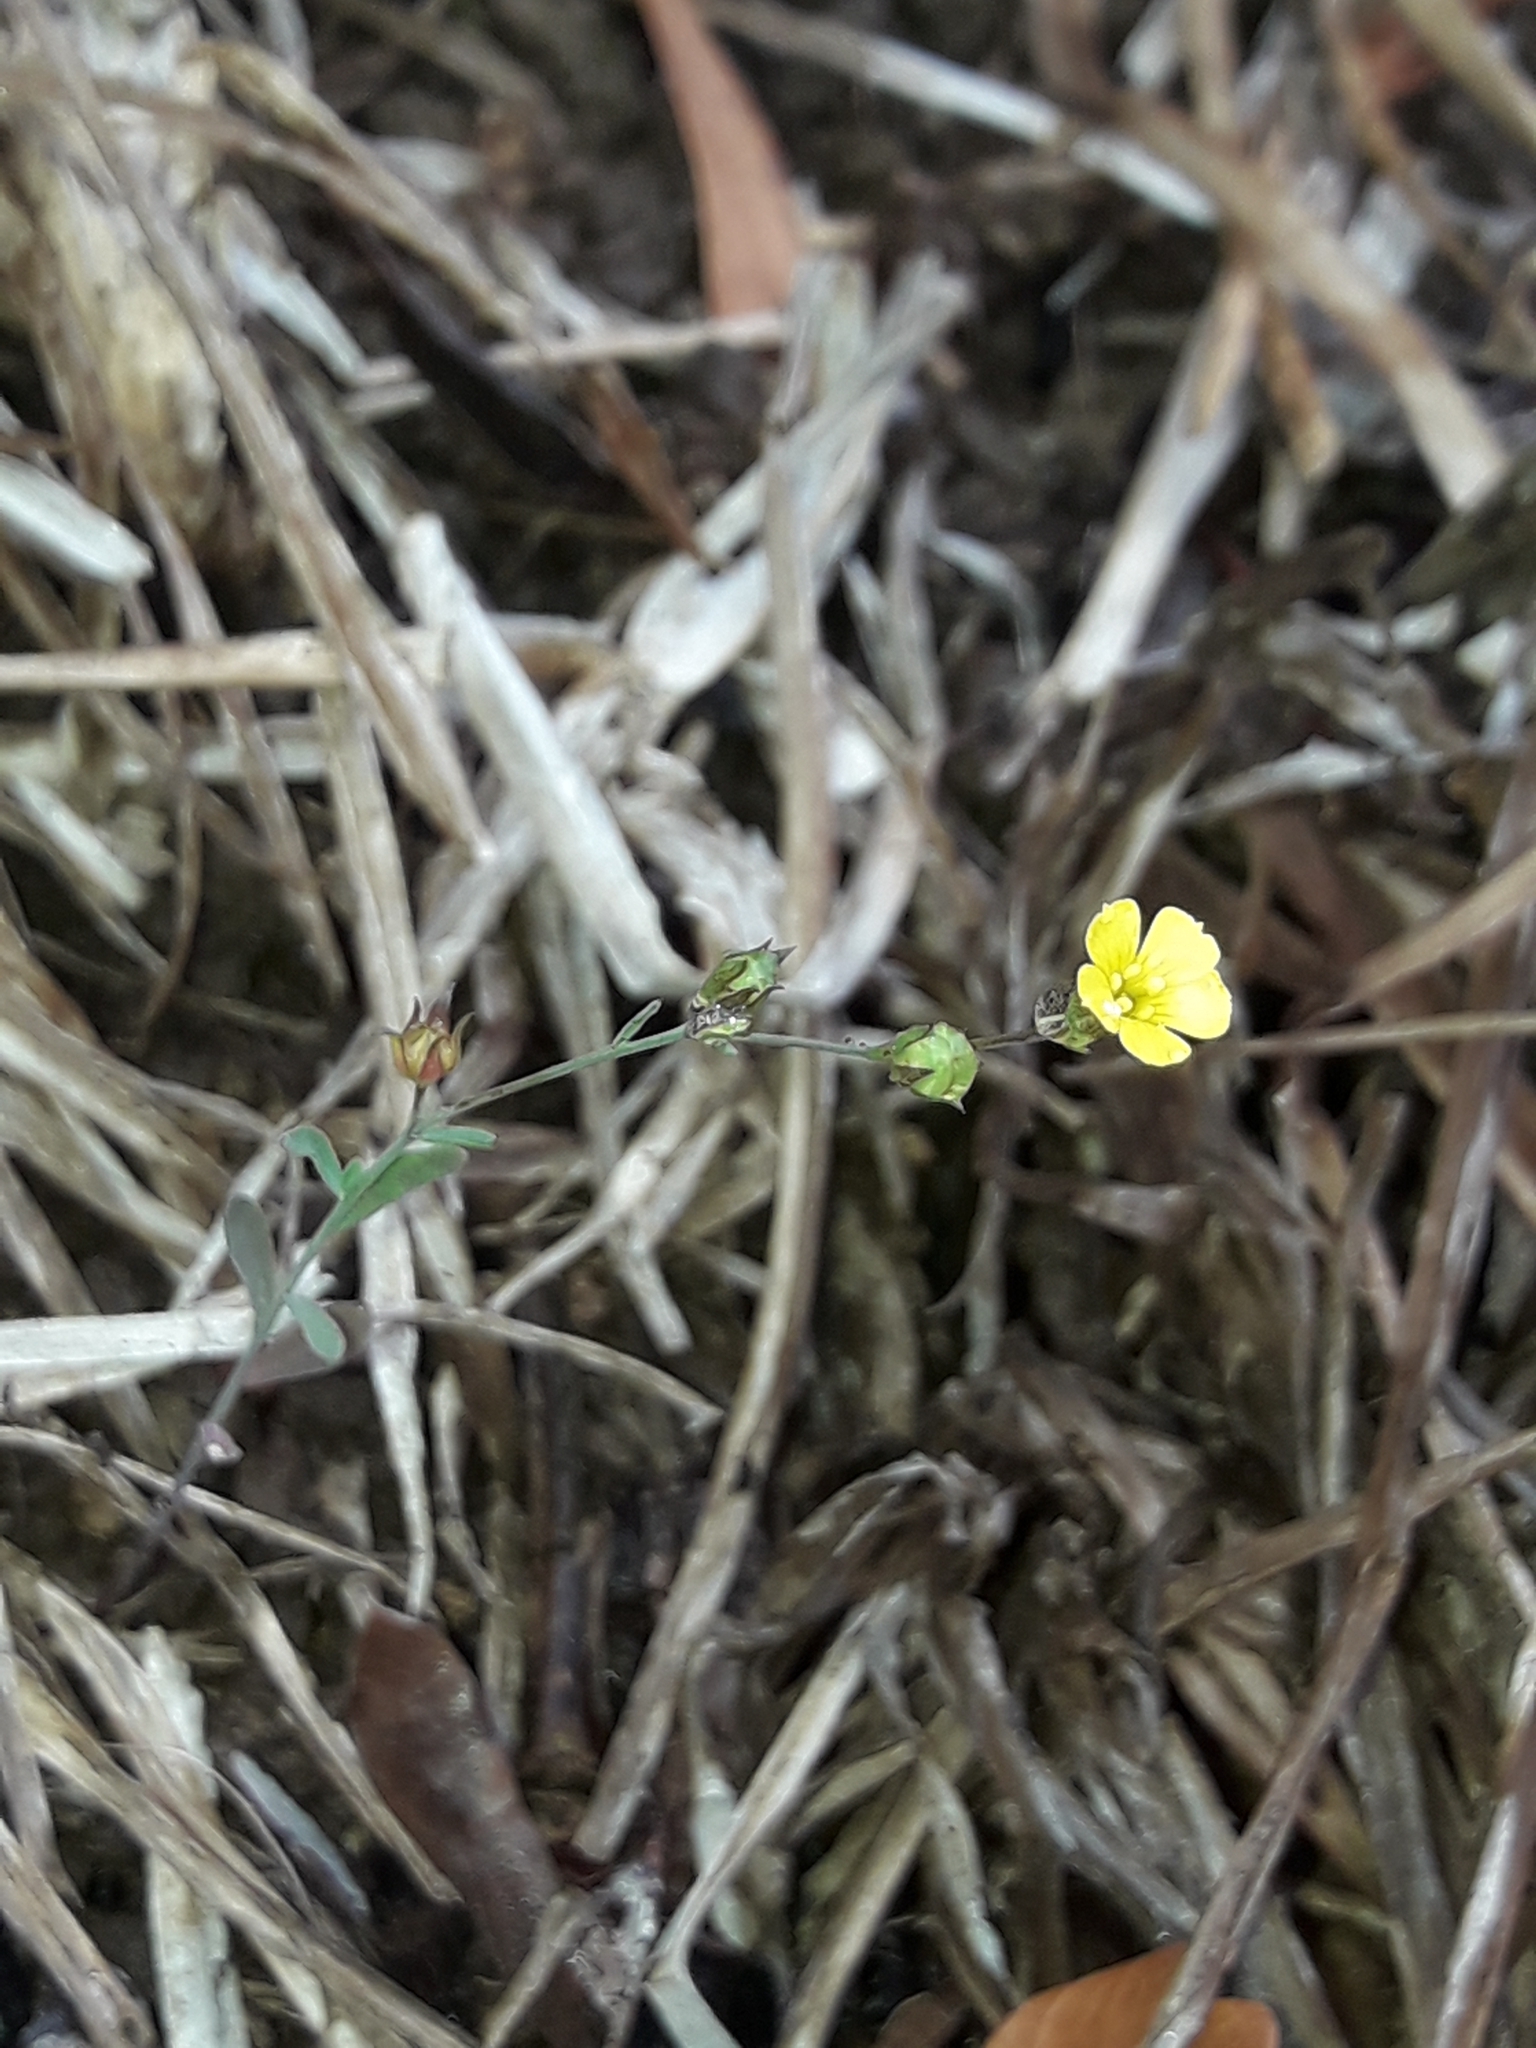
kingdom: Plantae
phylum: Tracheophyta
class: Magnoliopsida
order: Malpighiales
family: Linaceae
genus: Linum
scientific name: Linum trigynum
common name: French flax
